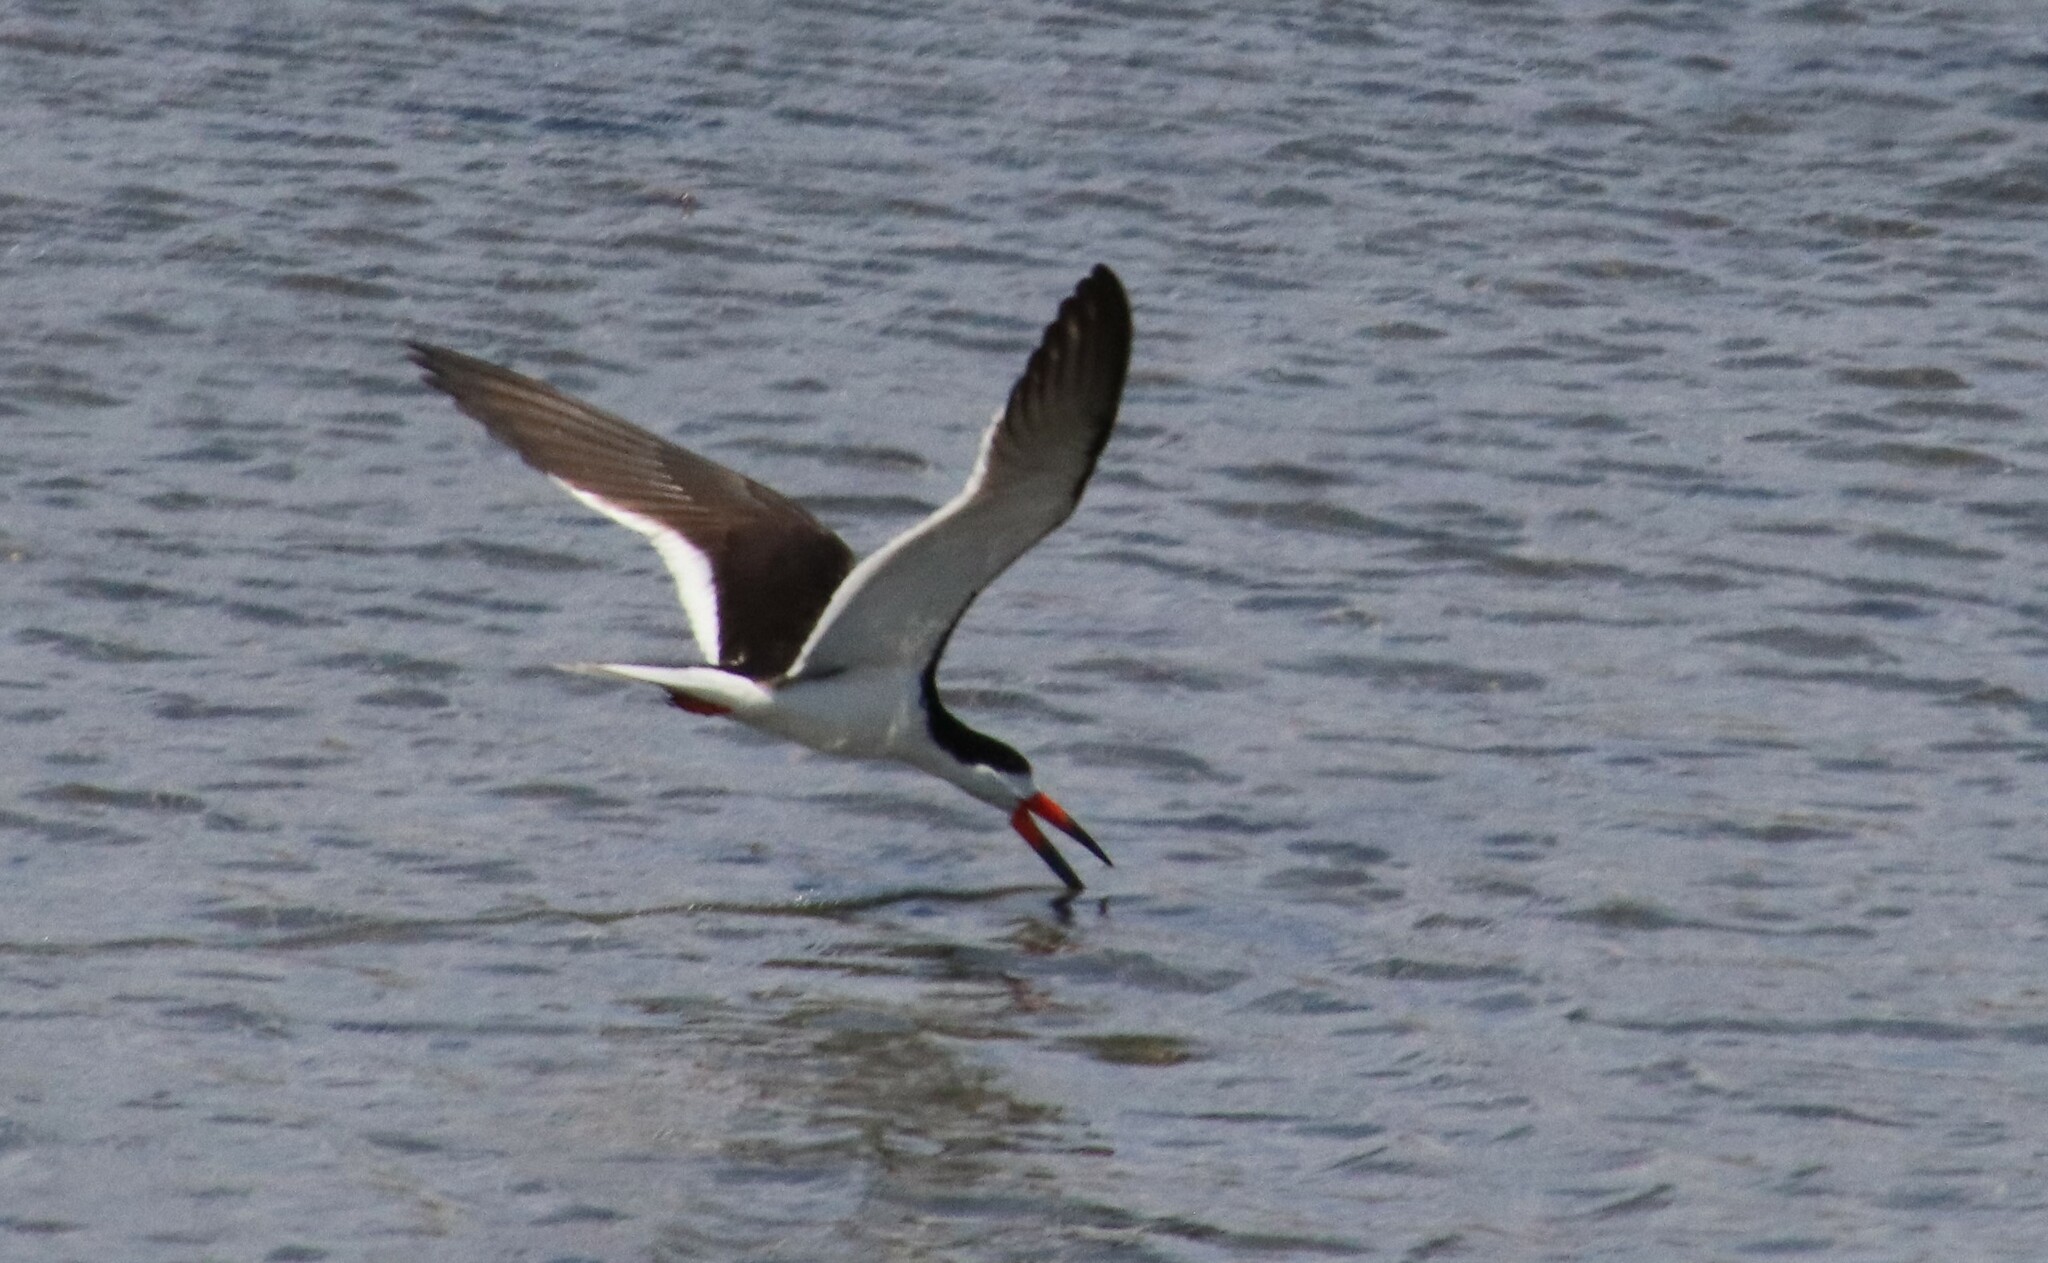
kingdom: Animalia
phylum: Chordata
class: Aves
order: Charadriiformes
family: Laridae
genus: Rynchops
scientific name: Rynchops niger
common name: Black skimmer
